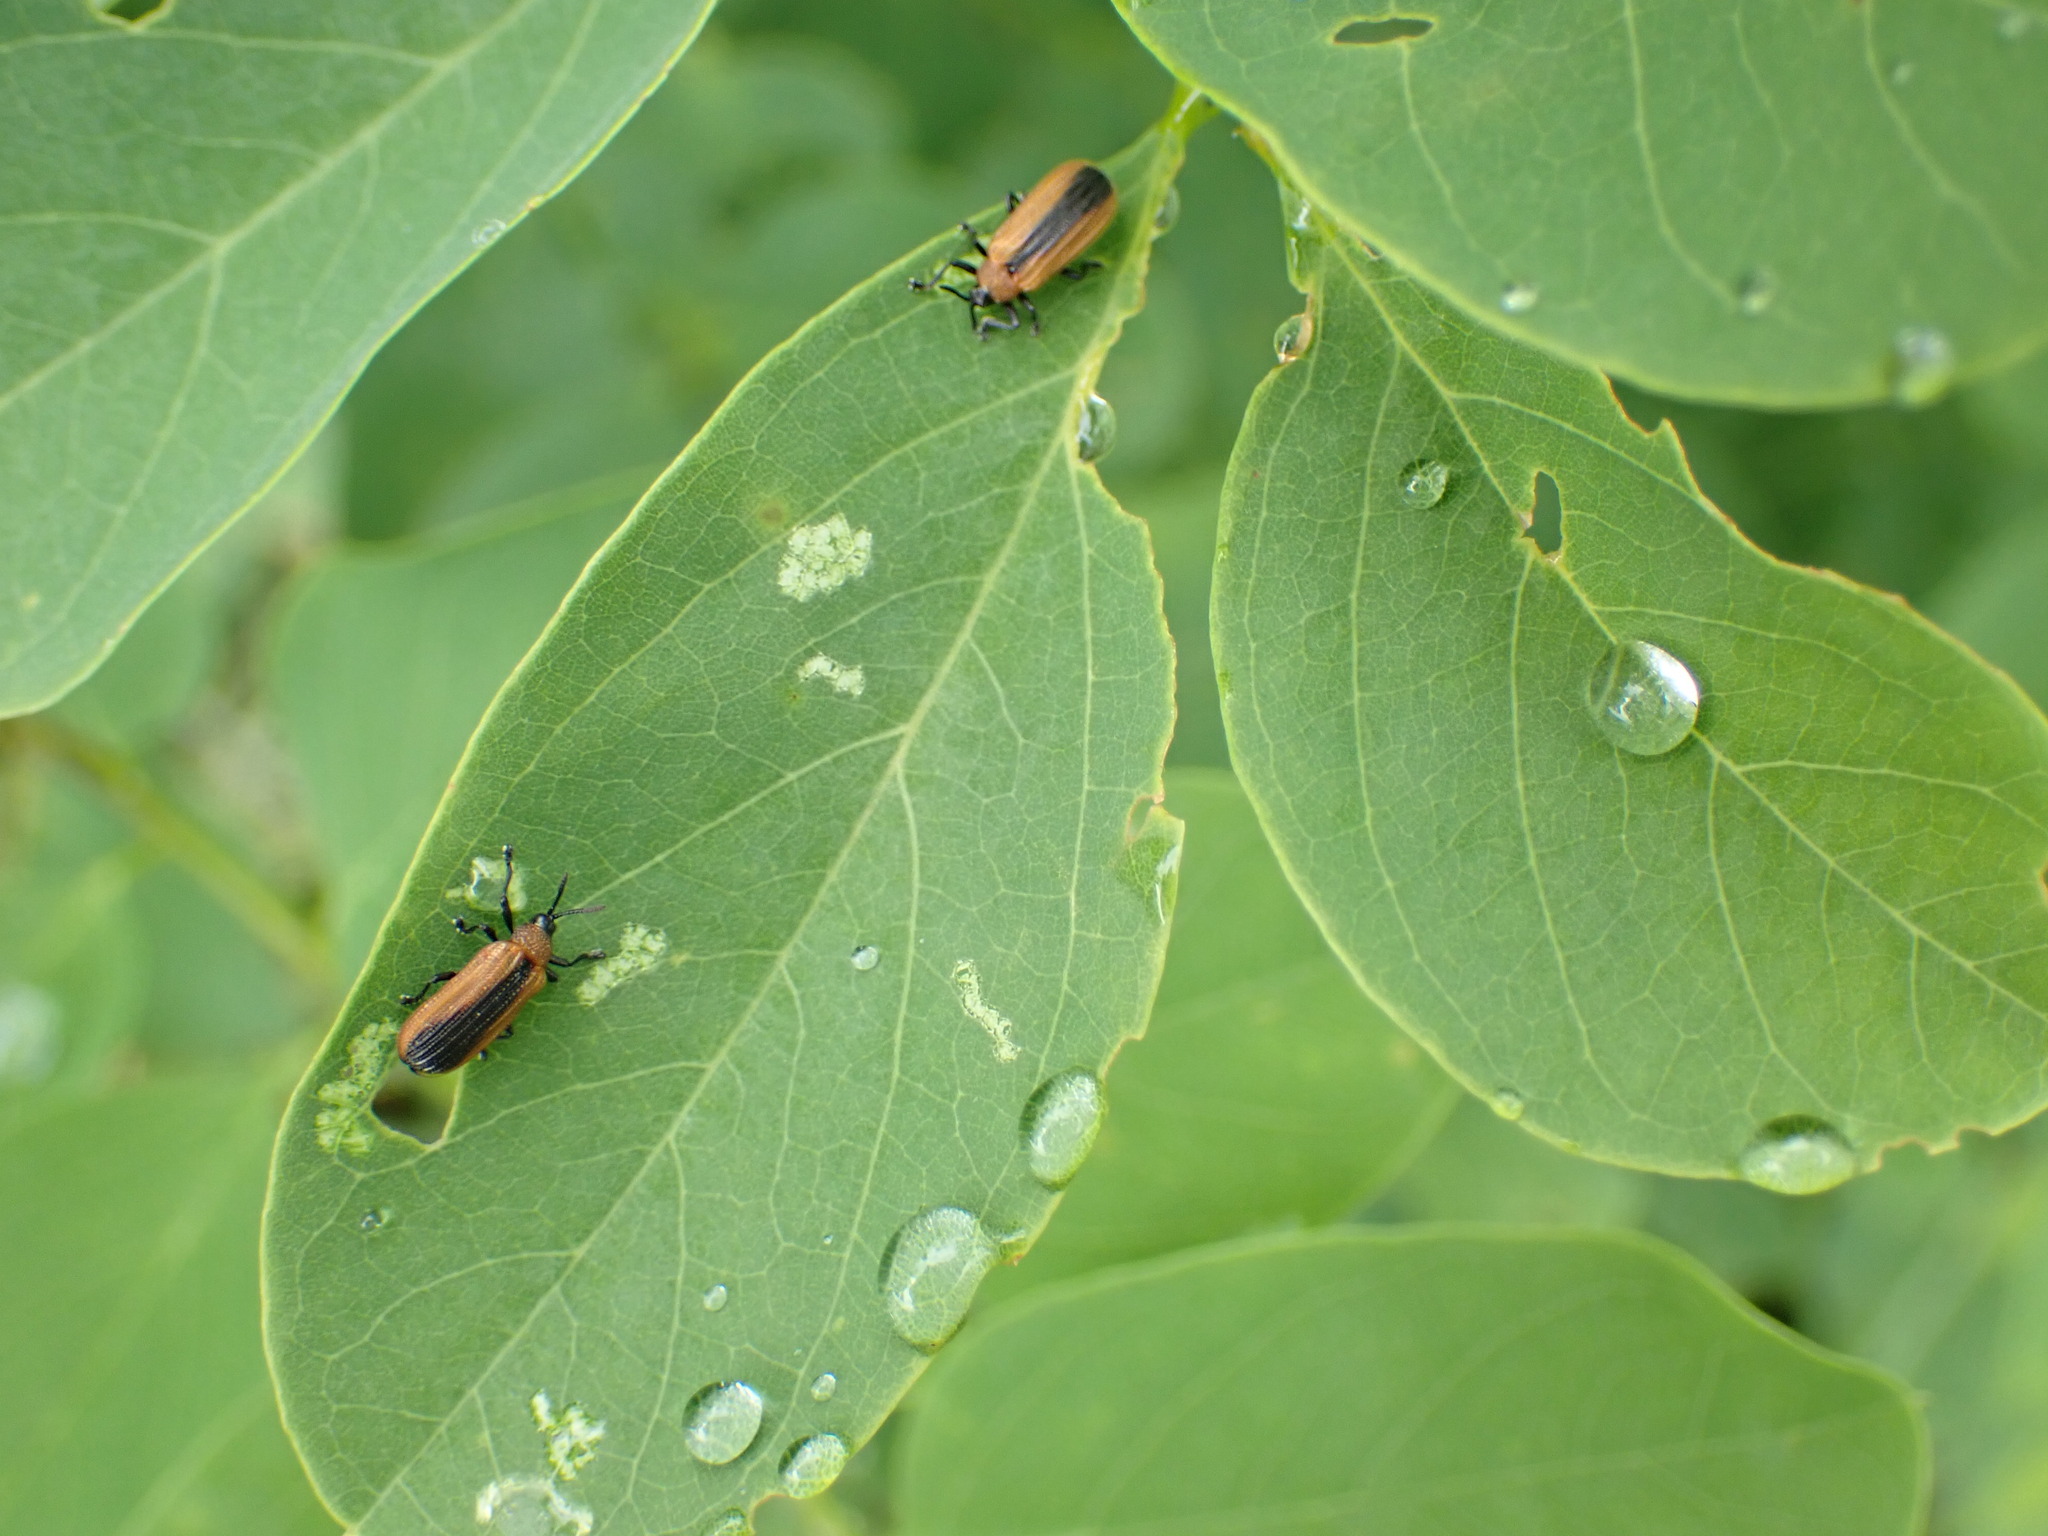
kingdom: Animalia
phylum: Arthropoda
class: Insecta
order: Coleoptera
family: Chrysomelidae
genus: Odontota
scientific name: Odontota dorsalis
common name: Locust leaf-miner beetle
